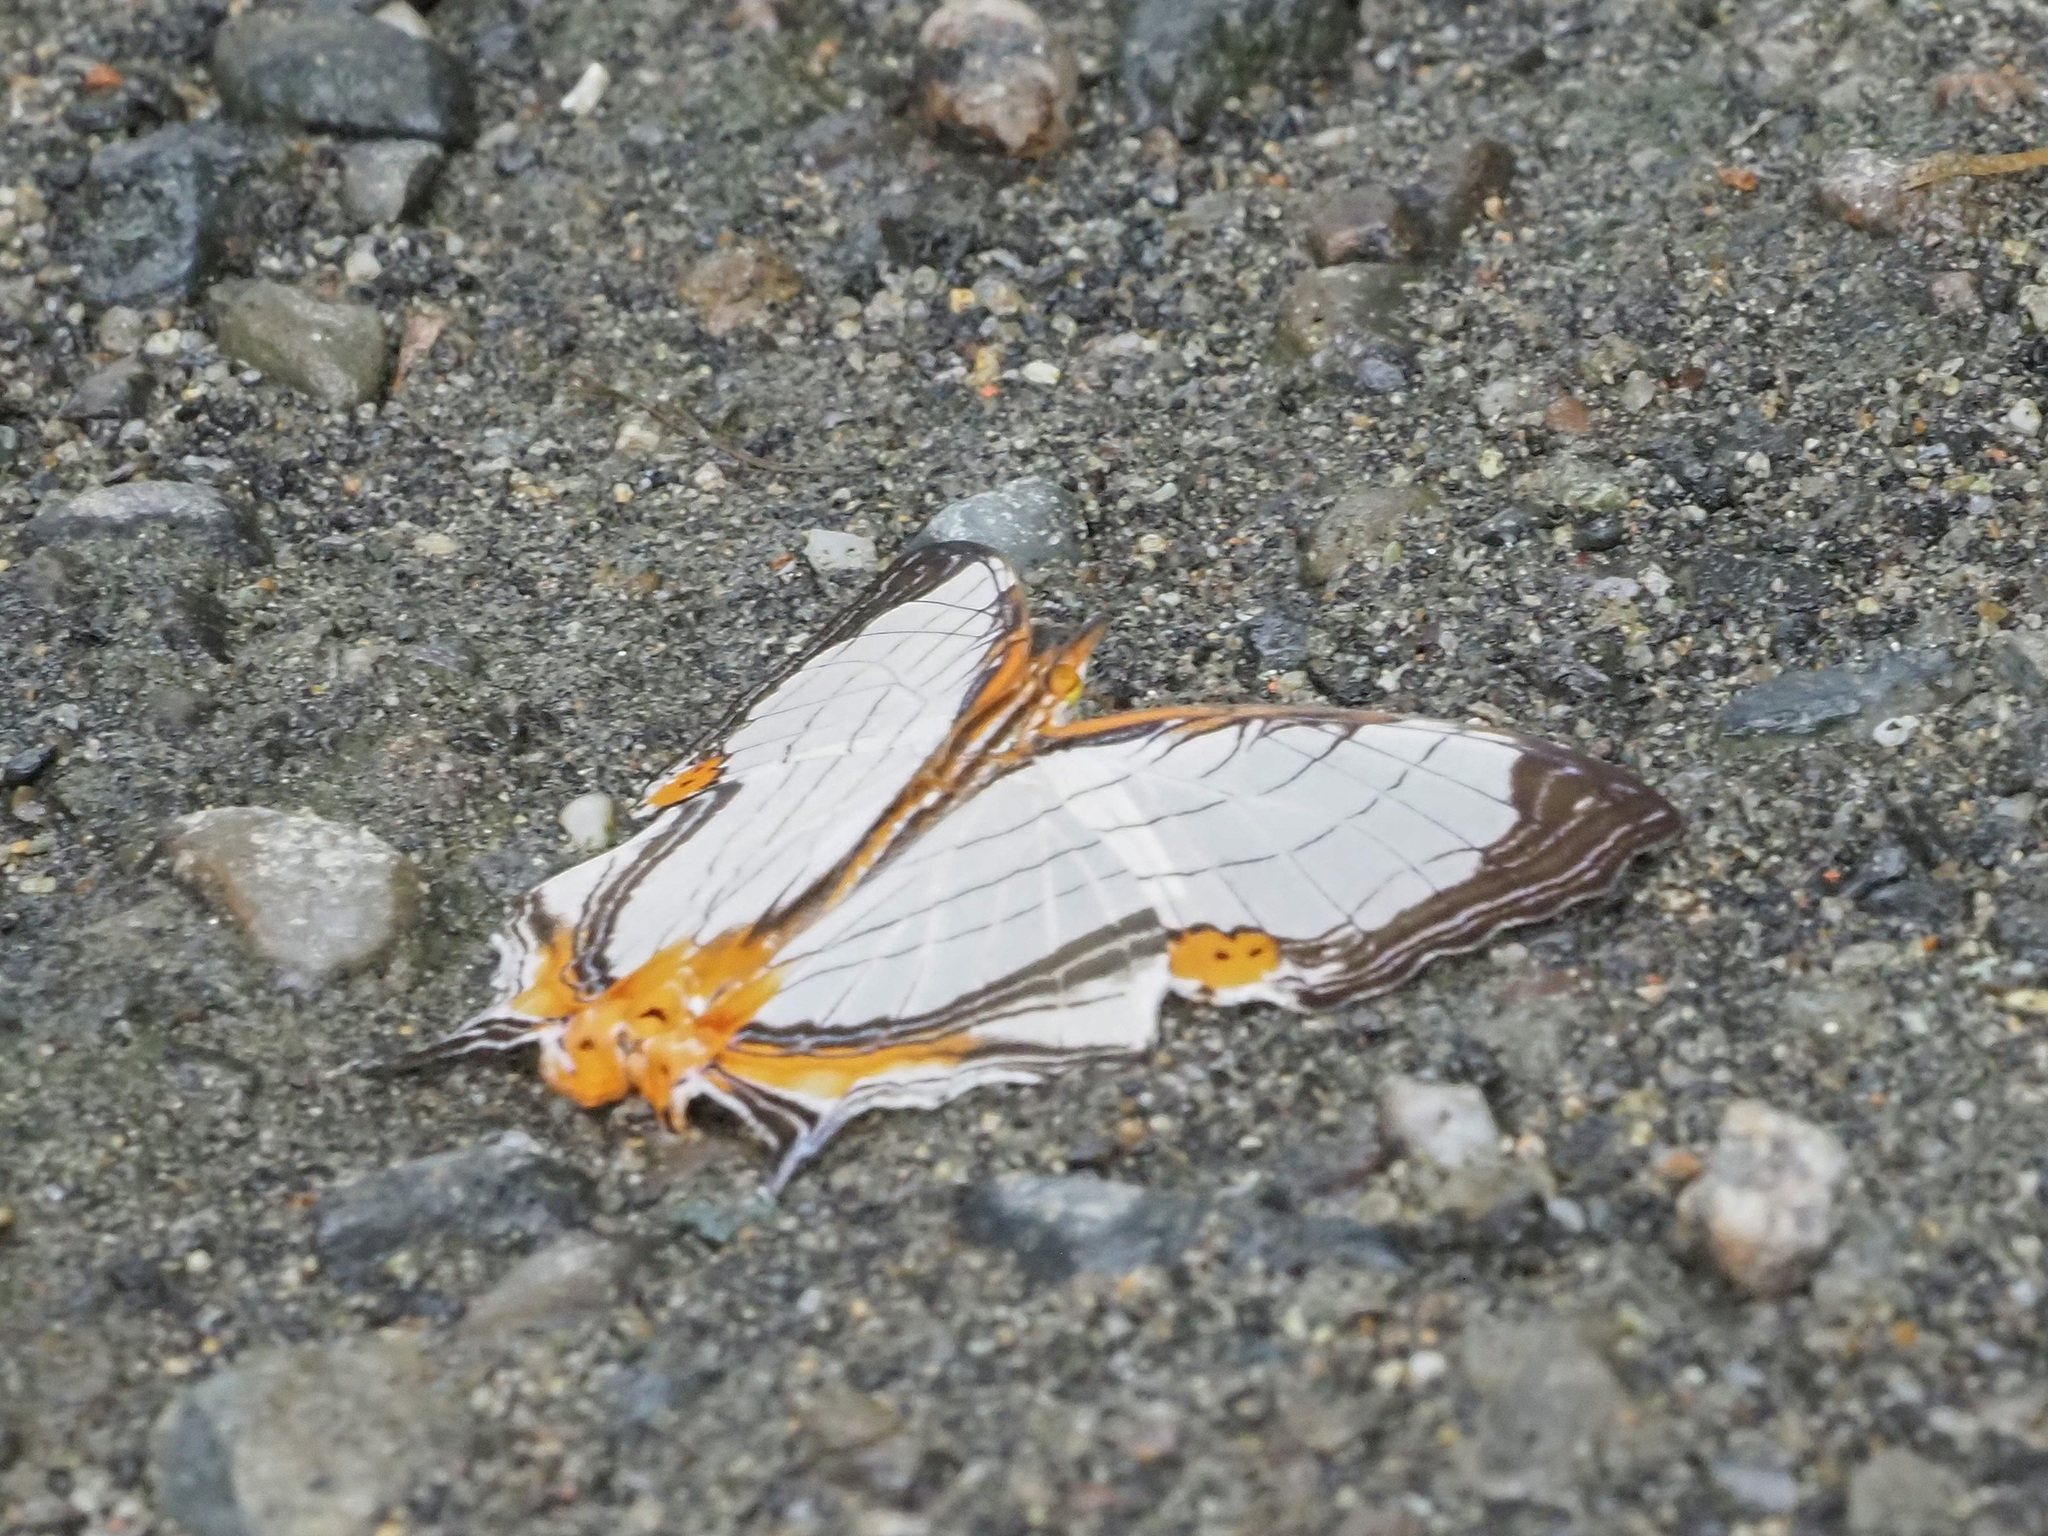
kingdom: Animalia
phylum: Arthropoda
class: Insecta
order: Lepidoptera
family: Nymphalidae
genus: Cyrestis
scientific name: Cyrestis nivea
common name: Straight line mapwing
